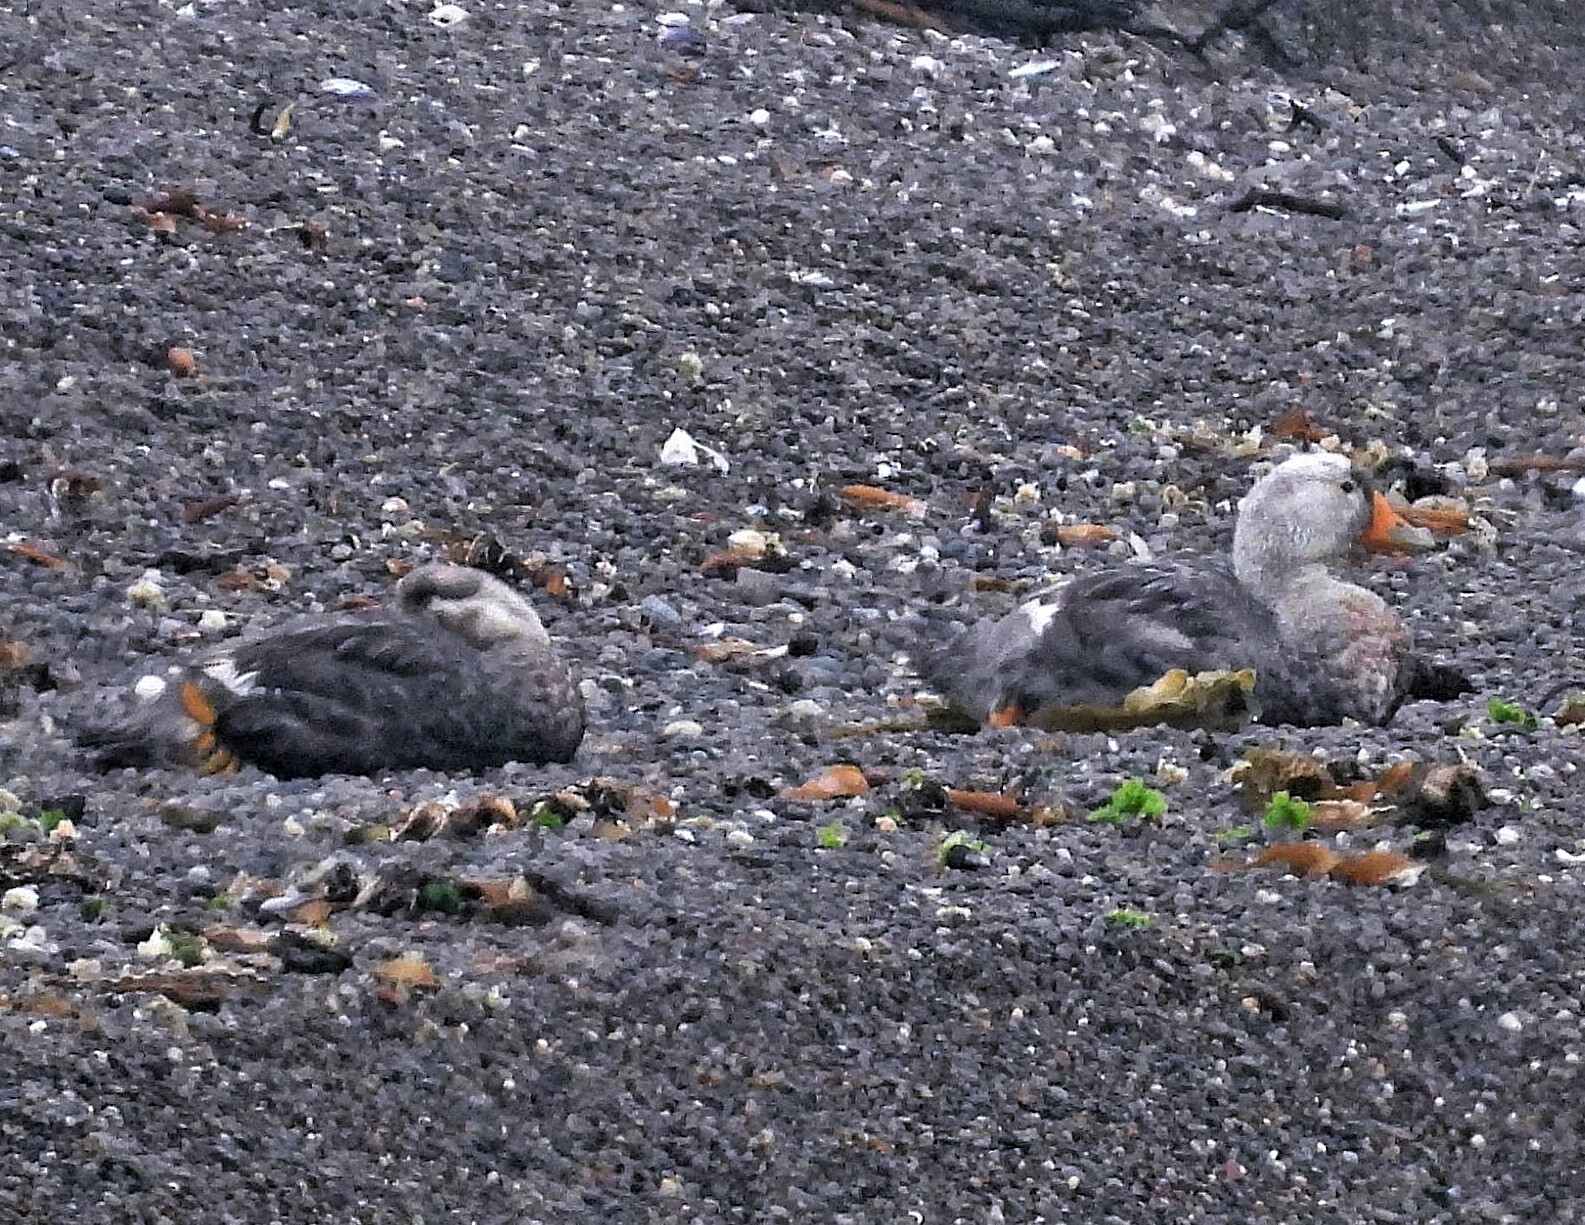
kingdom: Animalia
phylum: Chordata
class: Aves
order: Anseriformes
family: Anatidae
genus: Tachyeres
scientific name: Tachyeres leucocephalus
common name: Chubut steamer duck
